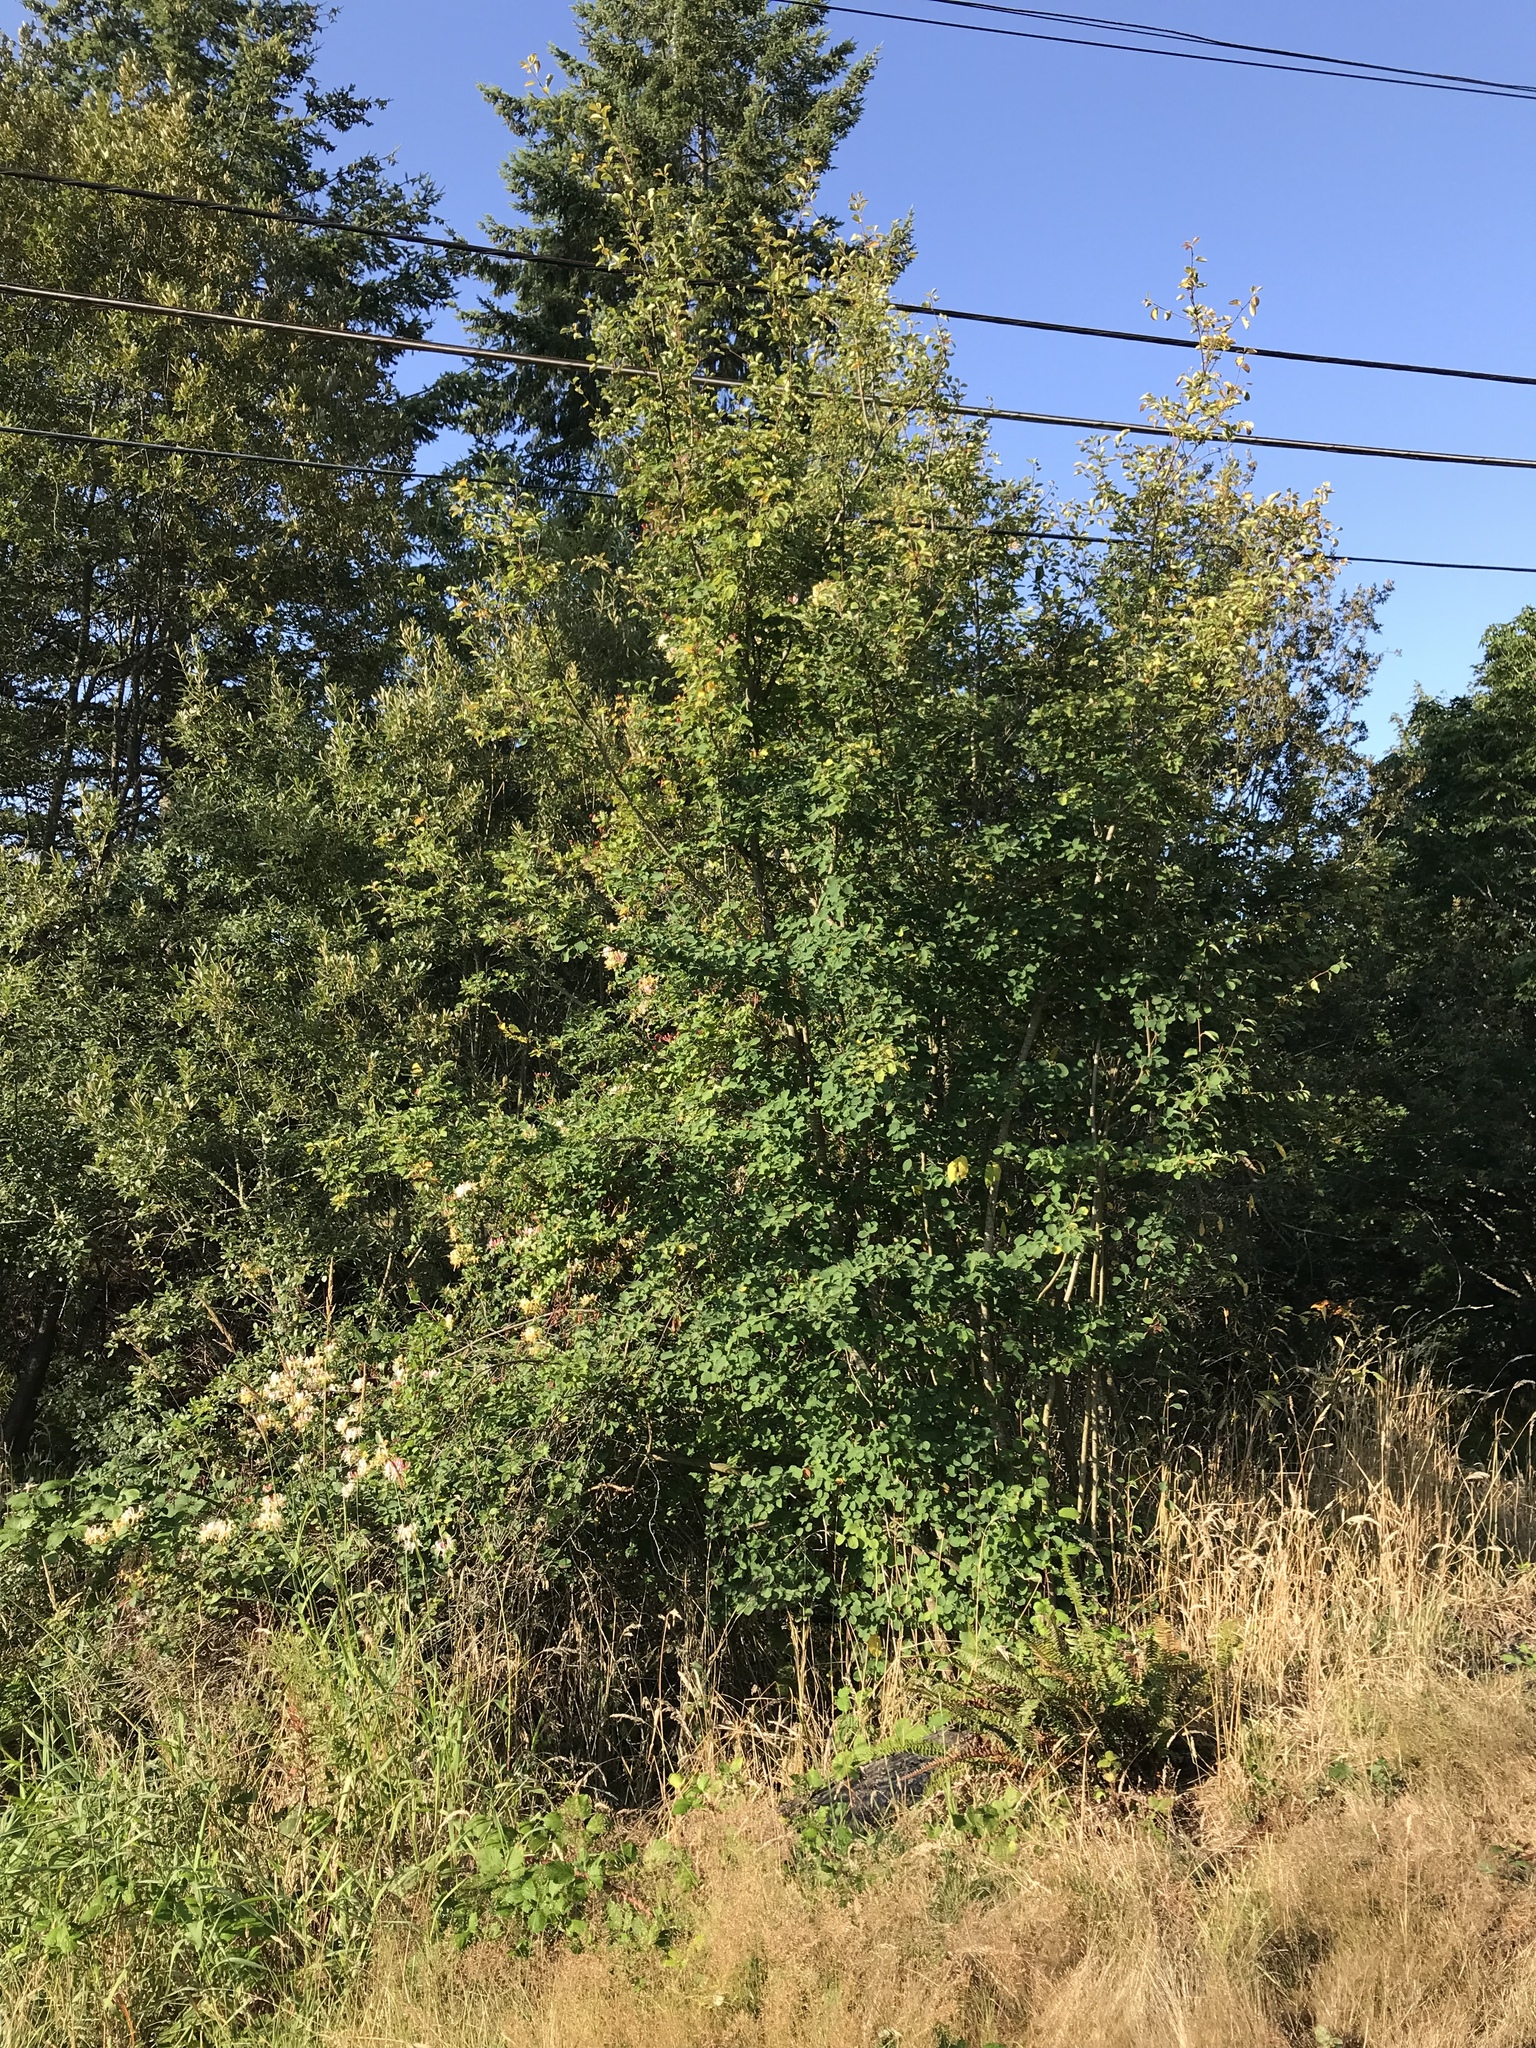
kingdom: Plantae
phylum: Tracheophyta
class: Magnoliopsida
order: Rosales
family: Rosaceae
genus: Amelanchier
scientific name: Amelanchier alnifolia
